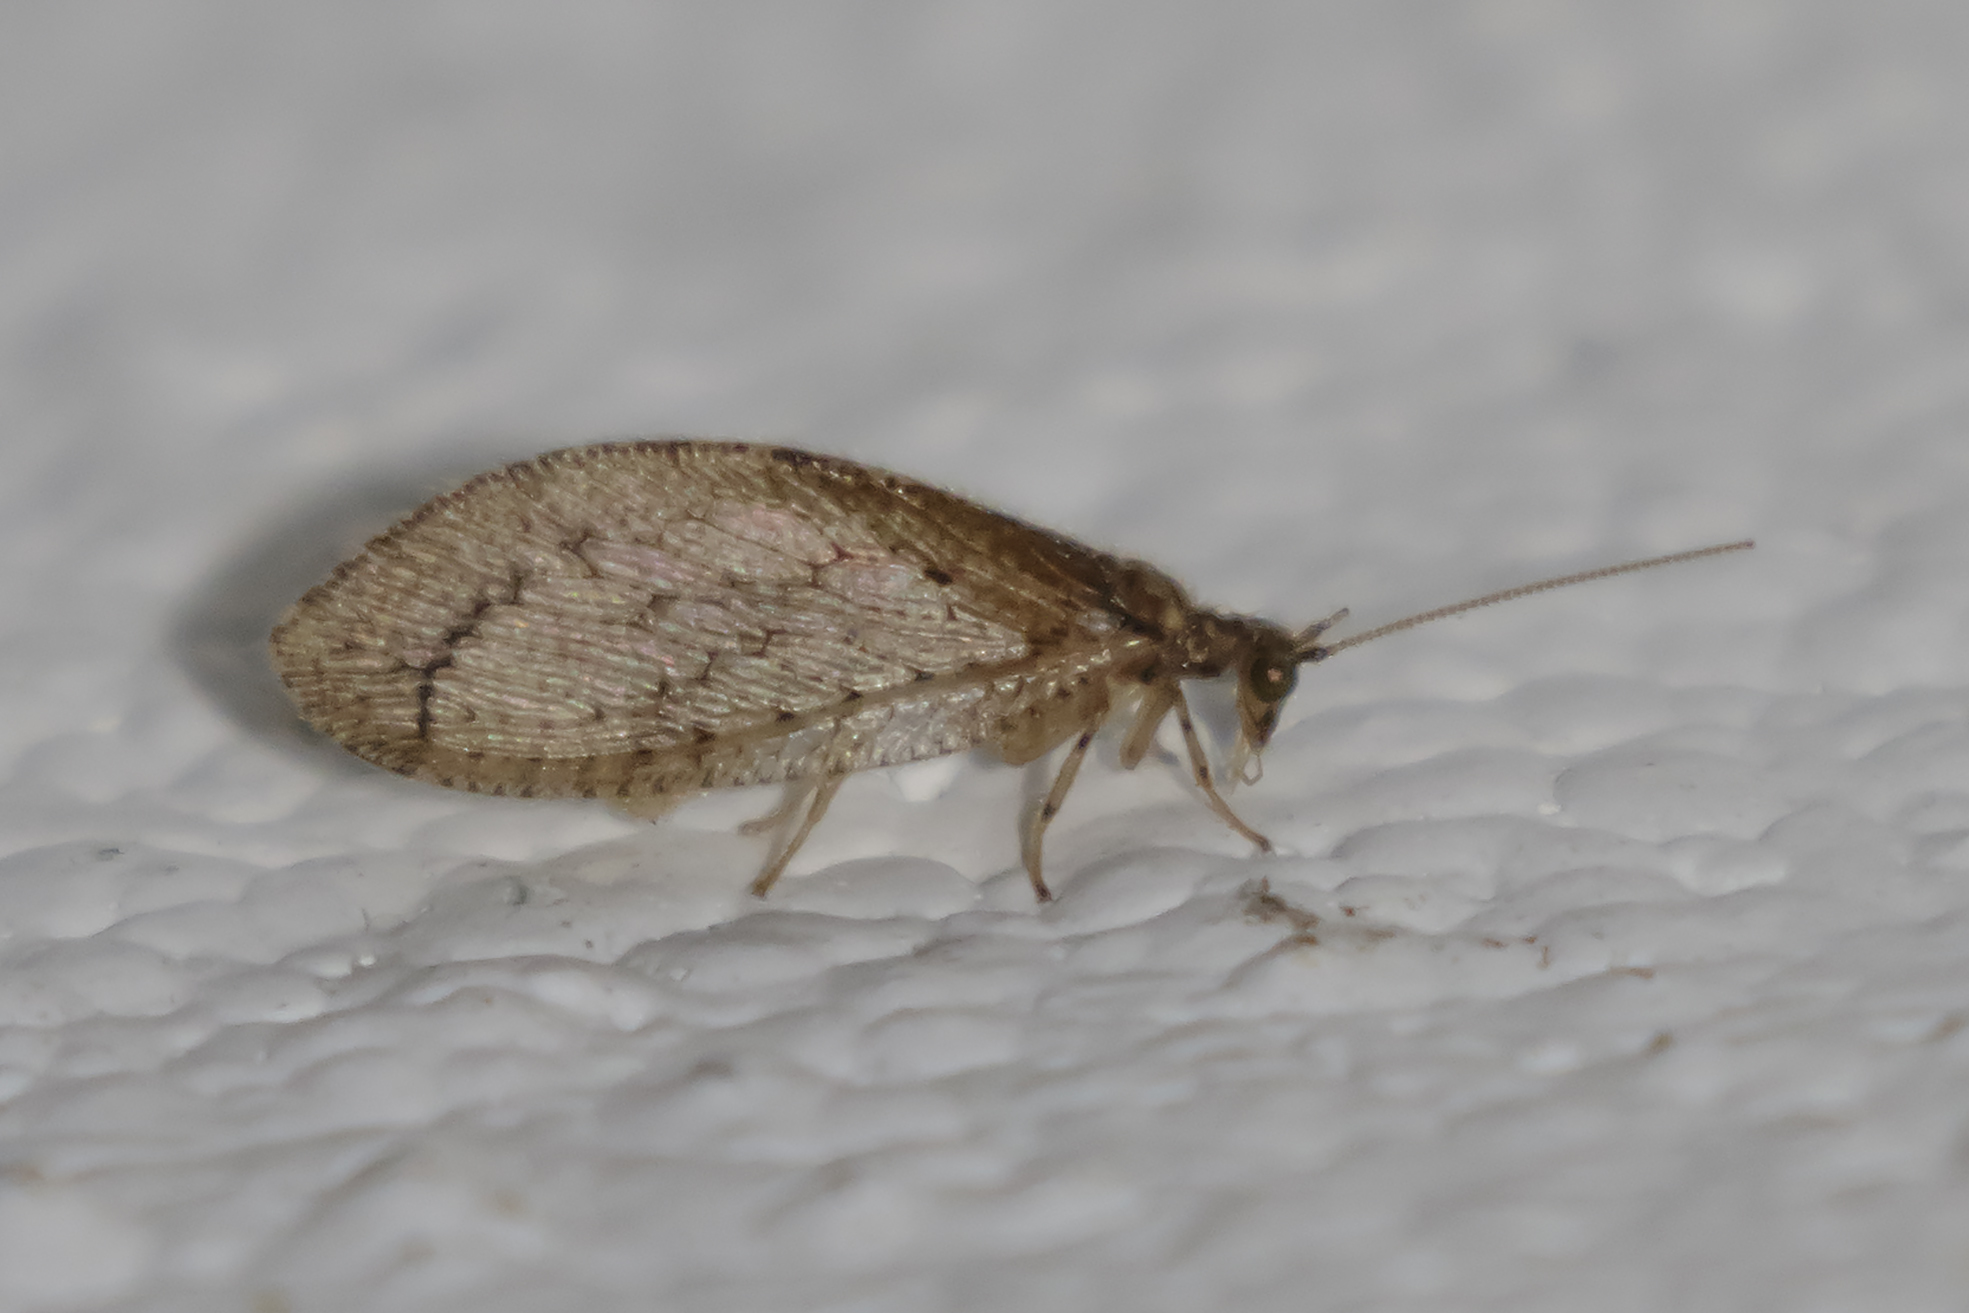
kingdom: Animalia
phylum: Arthropoda
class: Insecta
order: Neuroptera
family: Hemerobiidae
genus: Nusalala
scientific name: Nusalala tessellata
